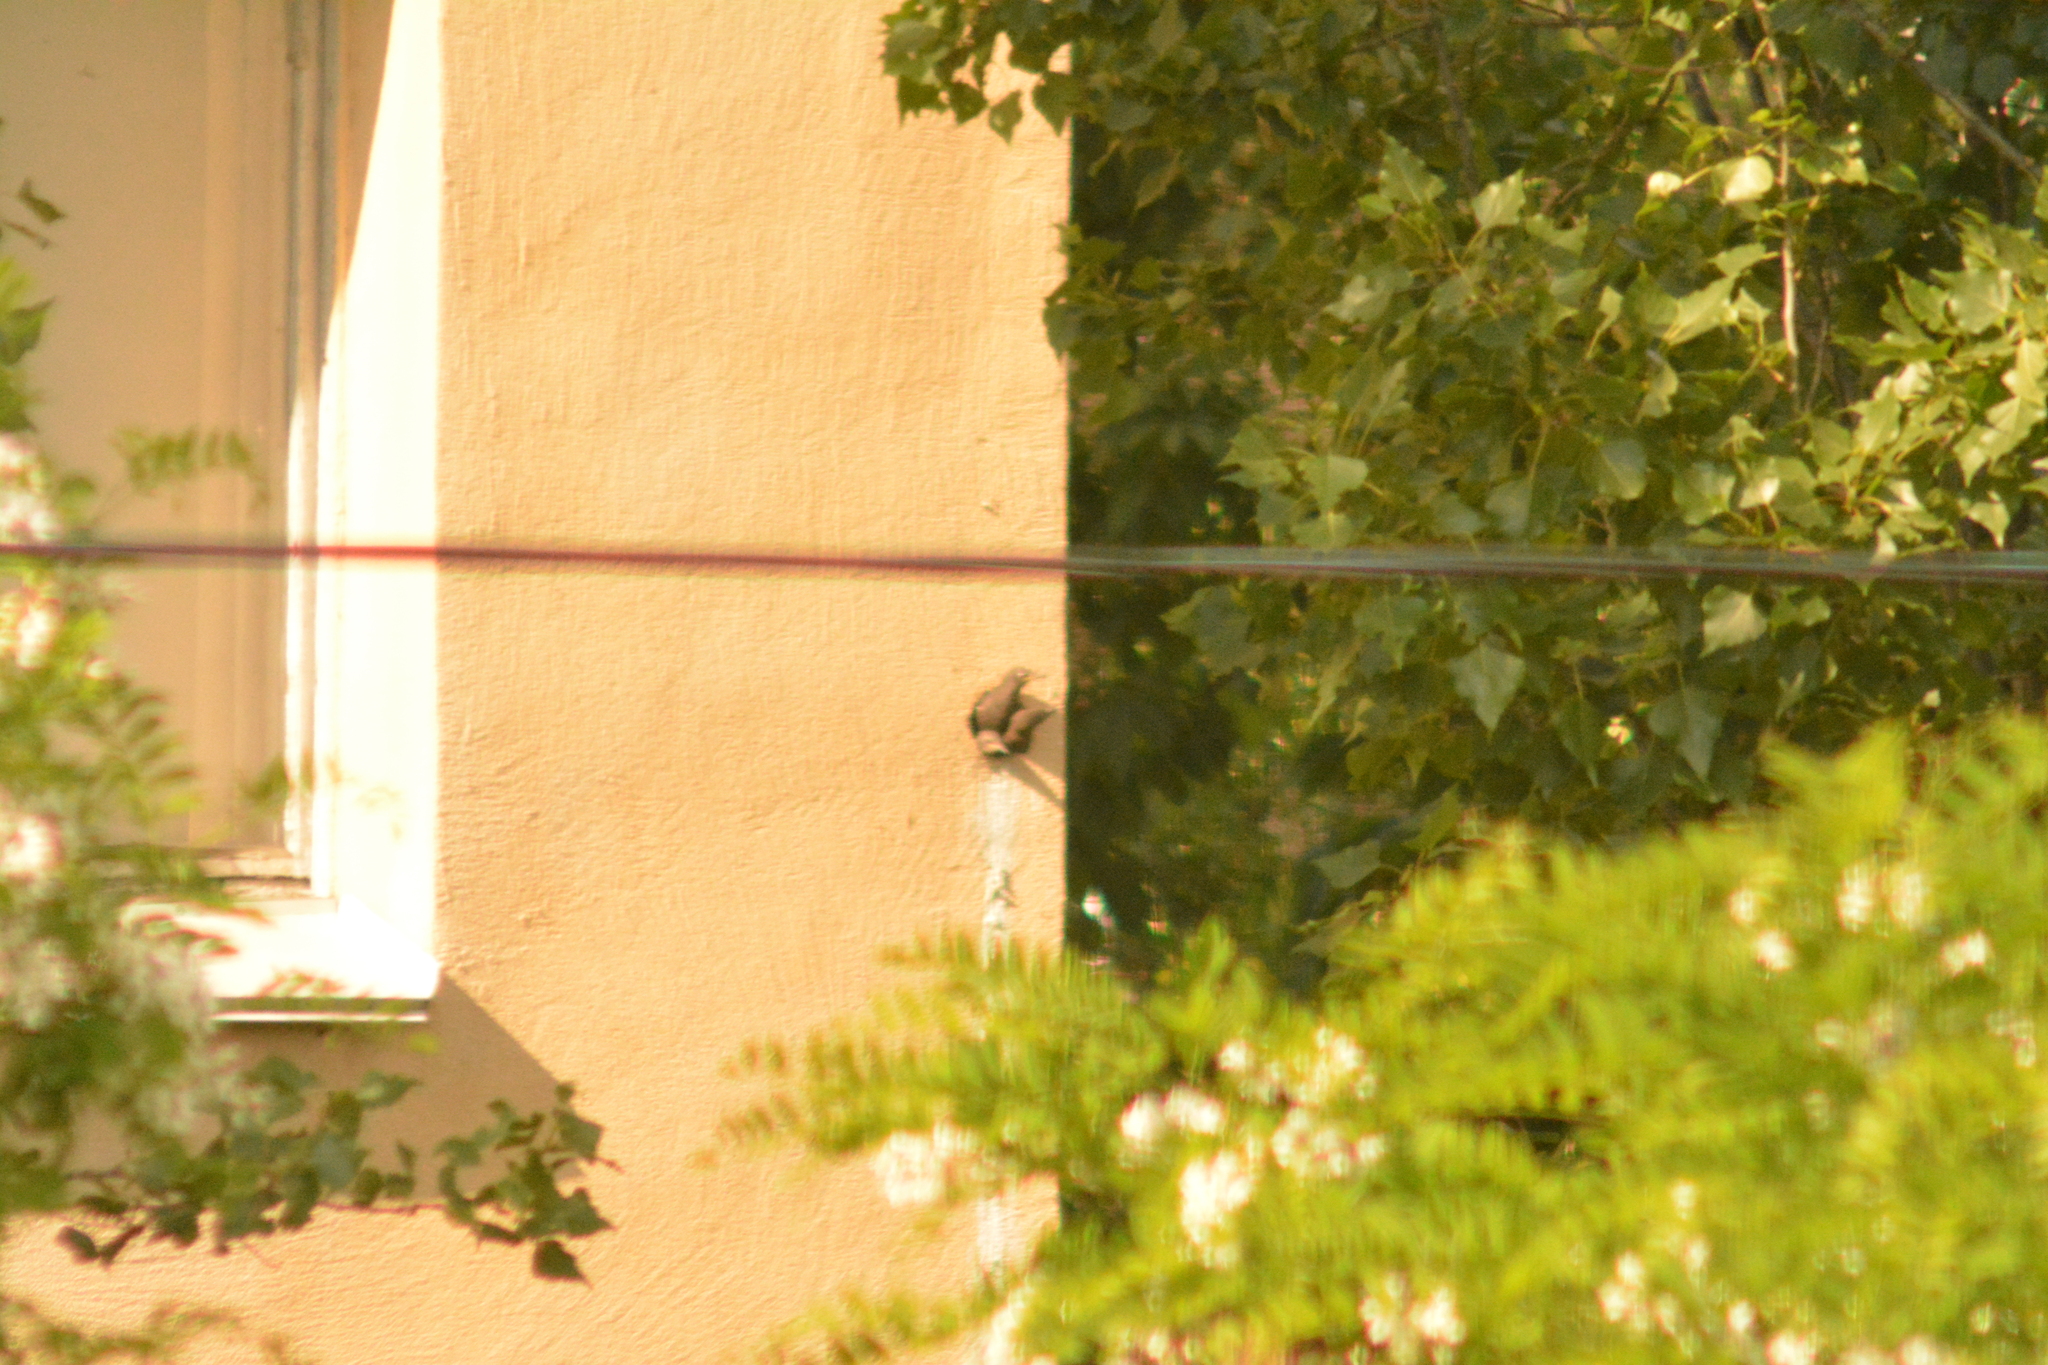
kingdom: Animalia
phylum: Chordata
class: Aves
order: Passeriformes
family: Sturnidae
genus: Sturnus
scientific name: Sturnus vulgaris
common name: Common starling
